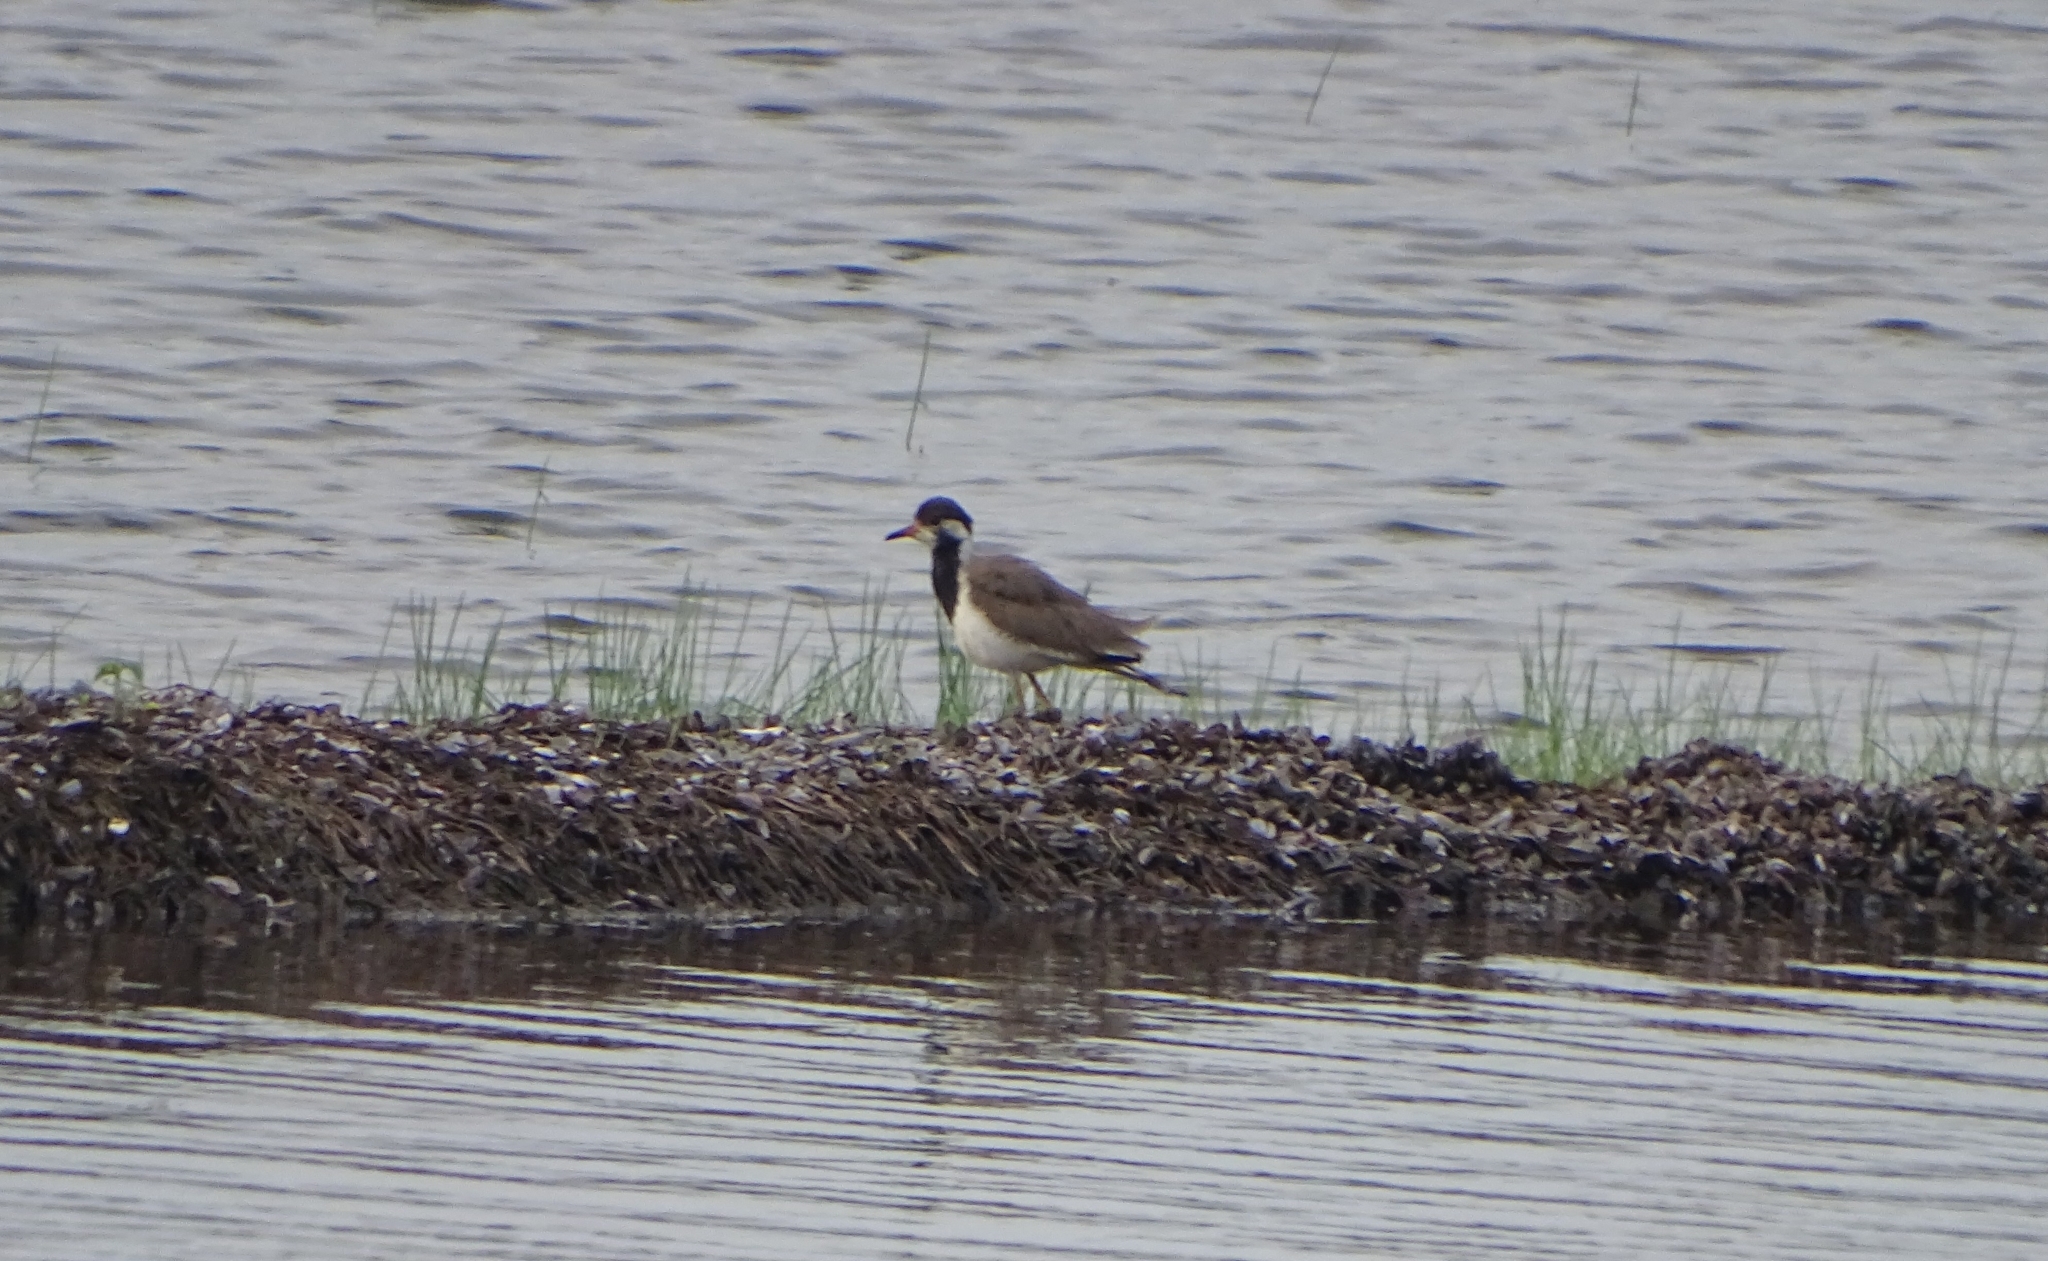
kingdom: Animalia
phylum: Chordata
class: Aves
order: Charadriiformes
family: Charadriidae
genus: Vanellus
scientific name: Vanellus indicus
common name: Red-wattled lapwing
